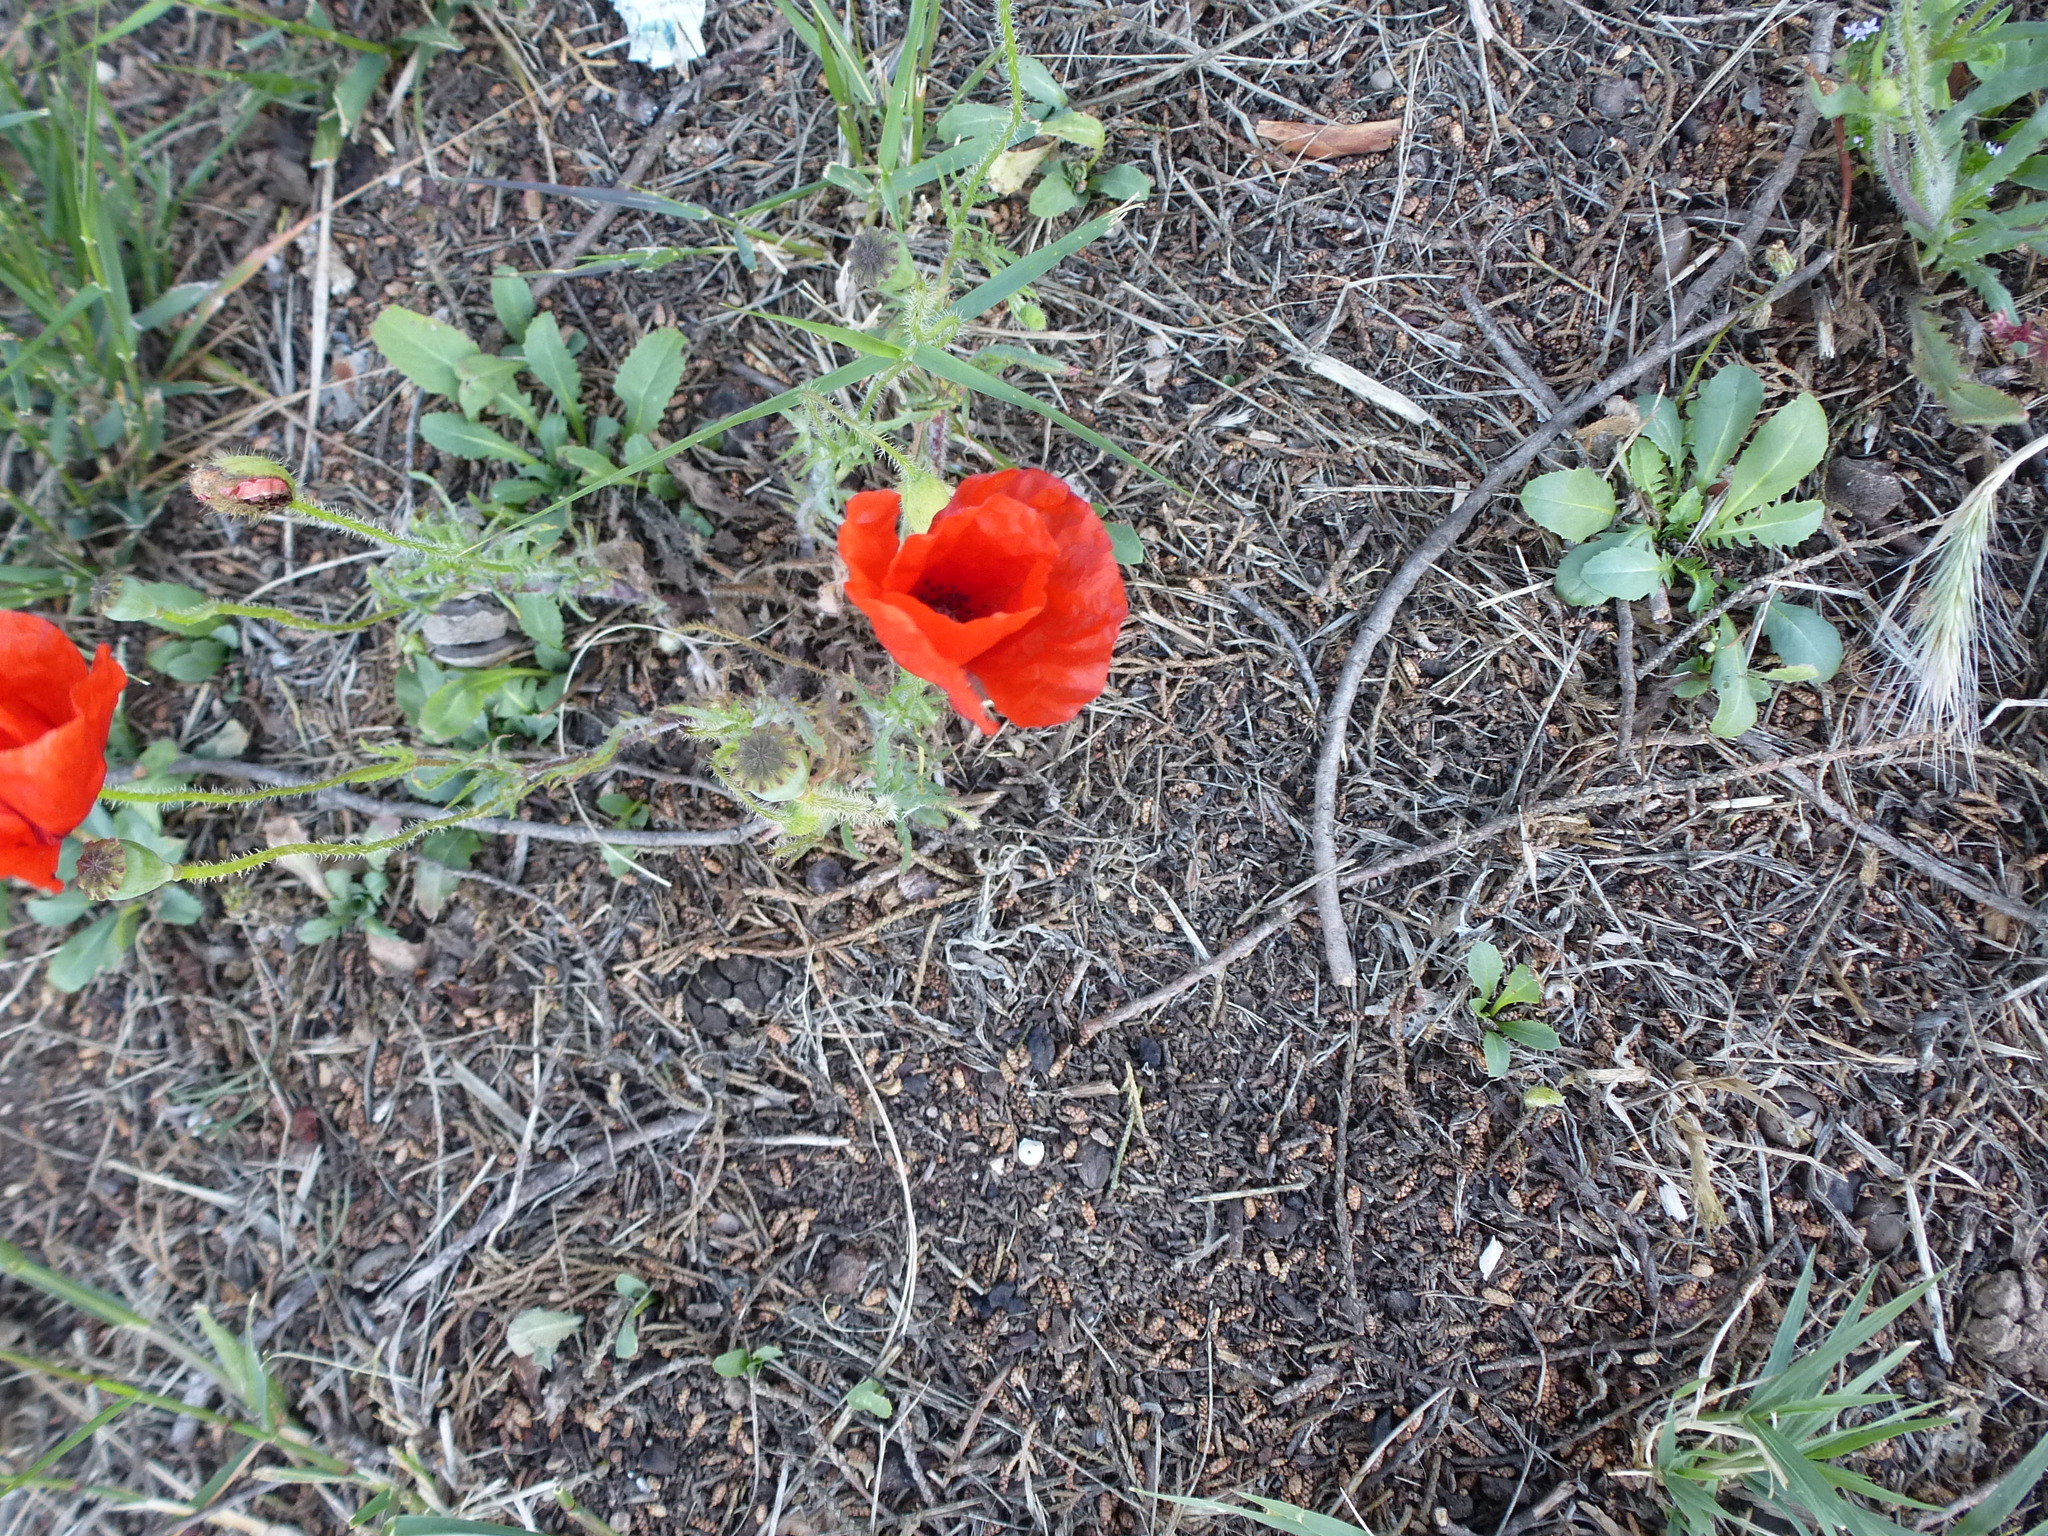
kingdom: Plantae
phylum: Tracheophyta
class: Magnoliopsida
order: Ranunculales
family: Papaveraceae
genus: Papaver
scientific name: Papaver rhoeas
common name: Corn poppy
